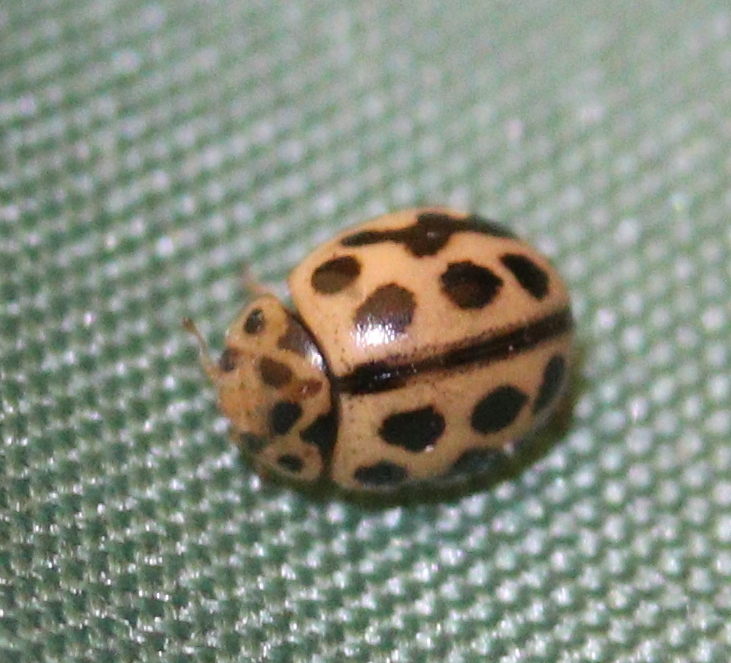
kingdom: Animalia
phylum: Arthropoda
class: Insecta
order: Coleoptera
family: Coccinellidae
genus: Tytthaspis
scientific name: Tytthaspis sedecimpunctata
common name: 16-spot ladybird
